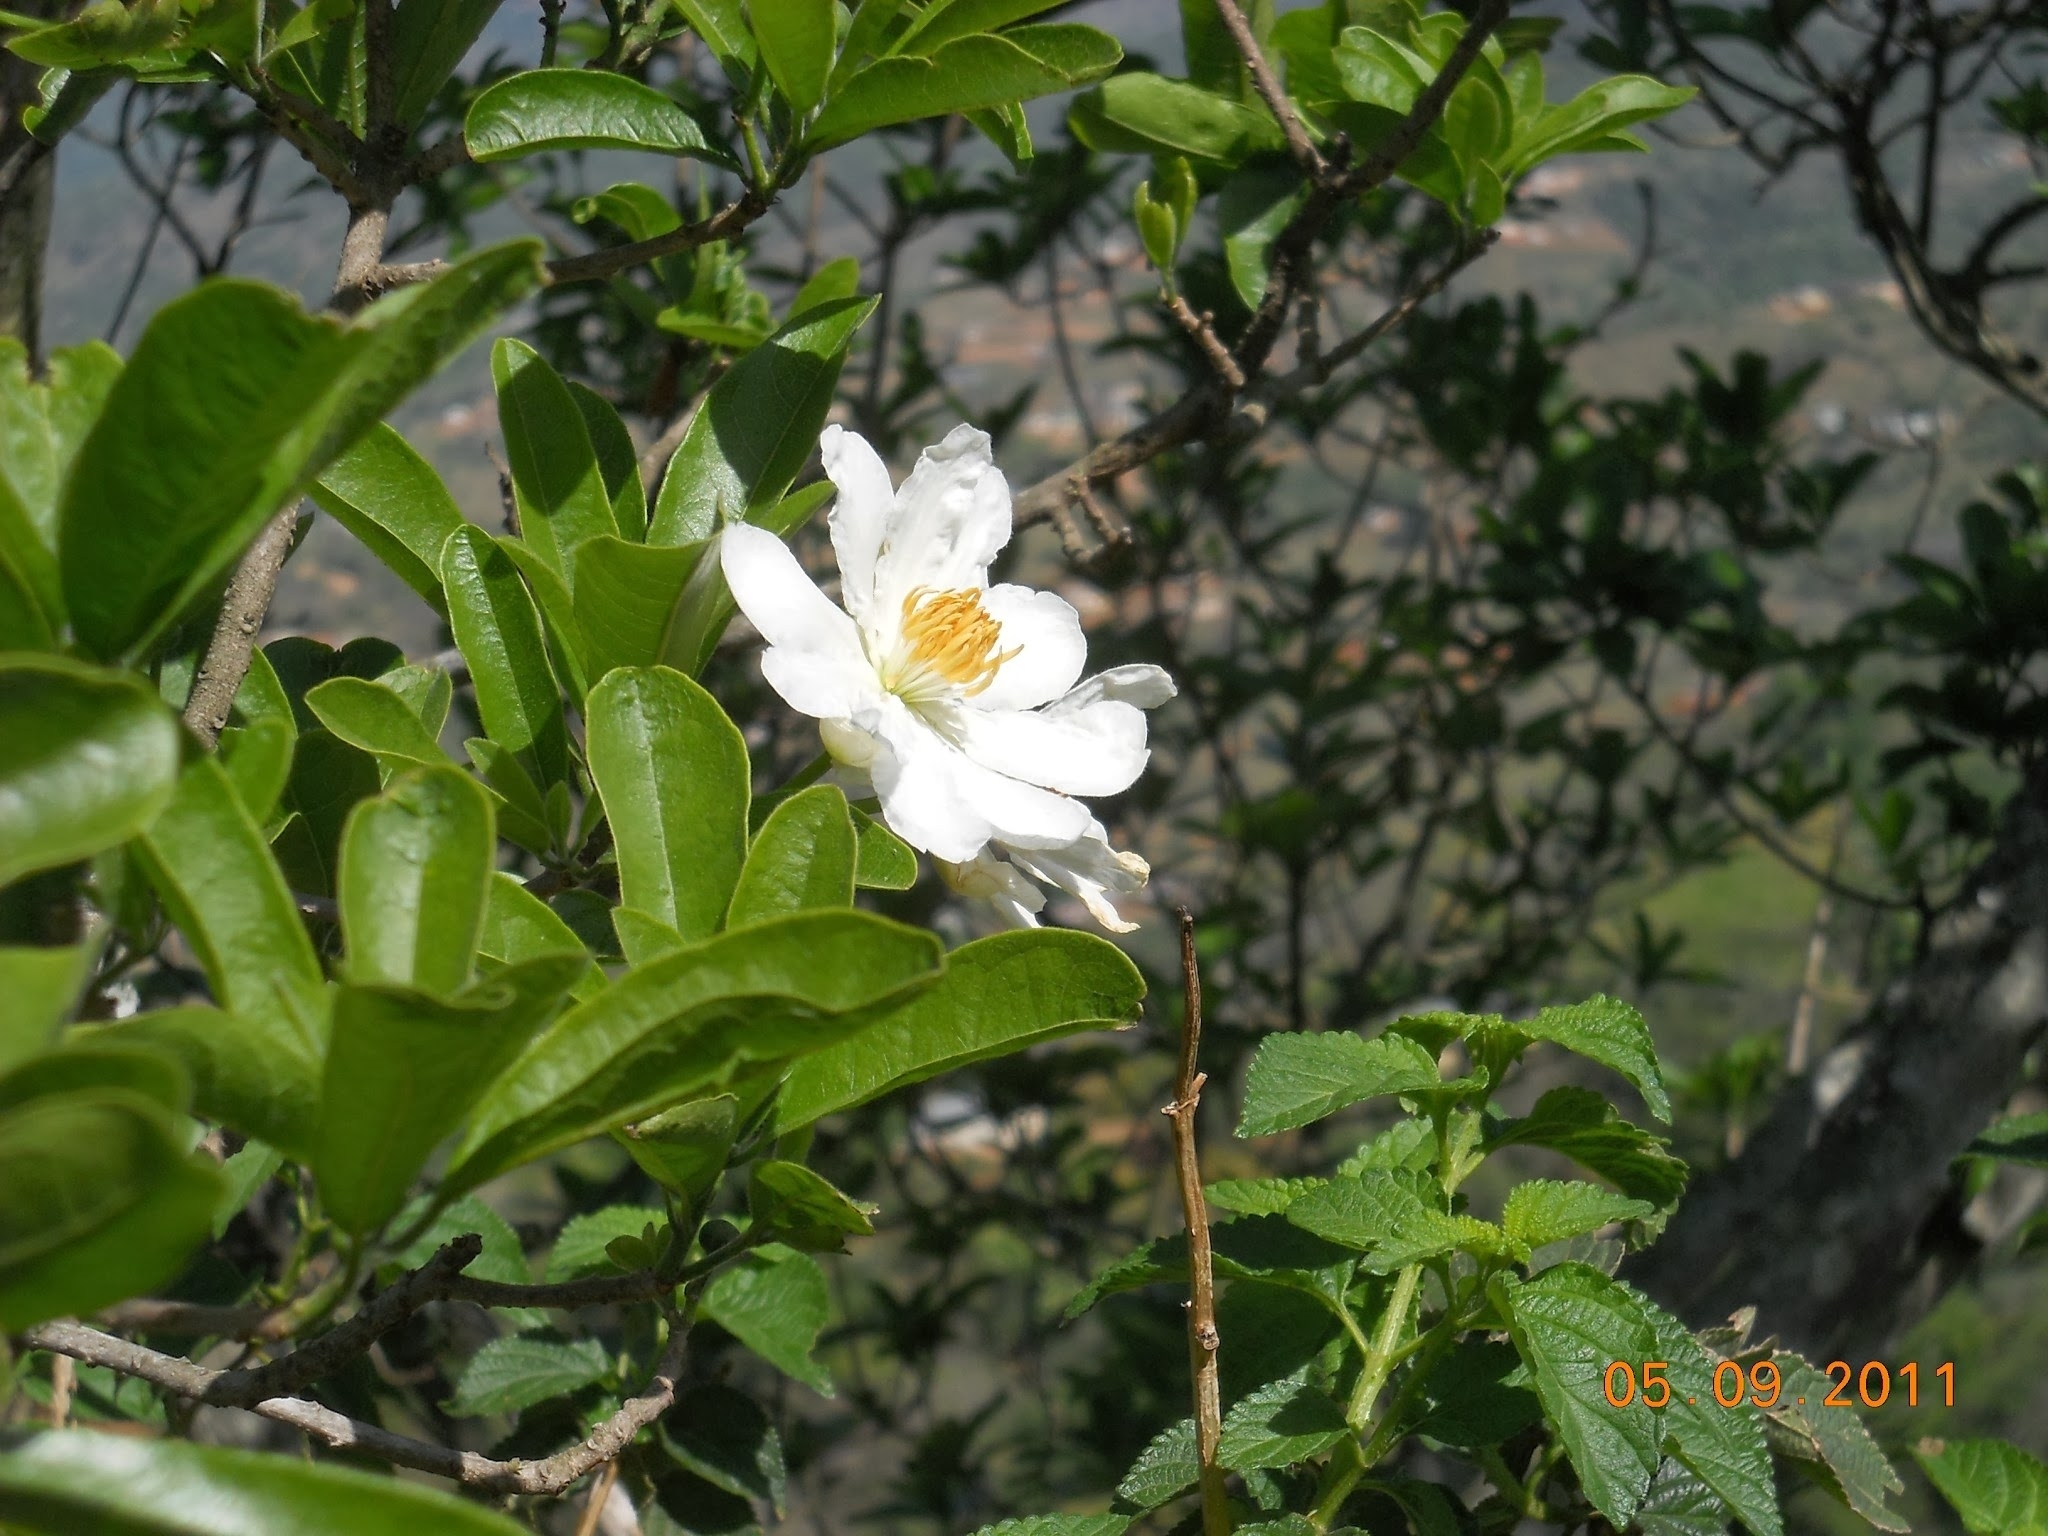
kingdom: Plantae
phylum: Tracheophyta
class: Magnoliopsida
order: Malpighiales
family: Achariaceae
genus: Xylotheca
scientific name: Xylotheca kraussiana
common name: African dog rose
